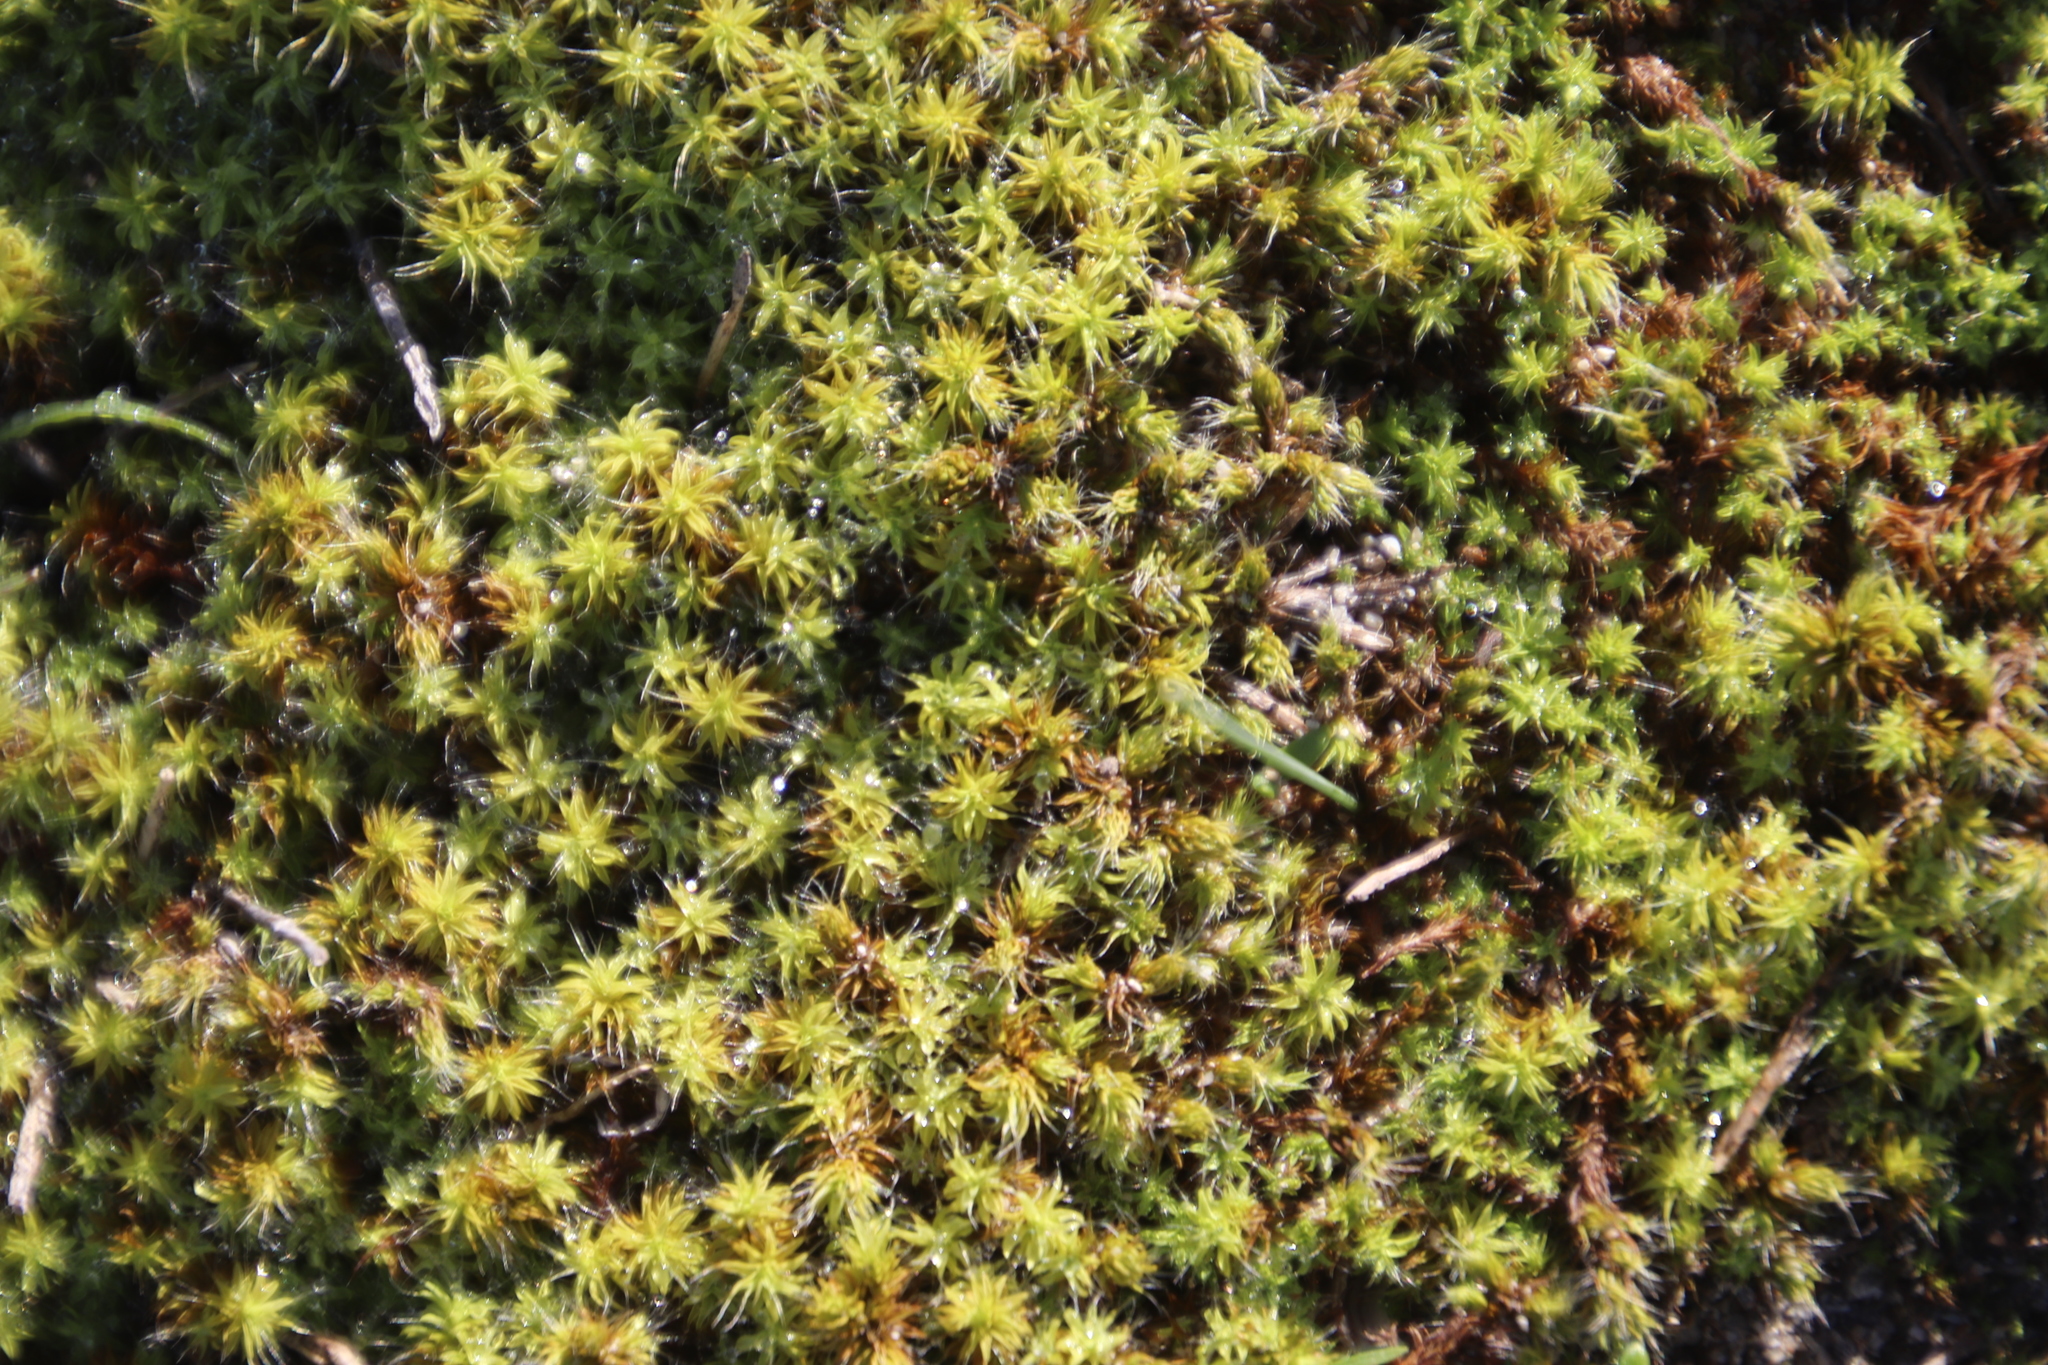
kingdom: Plantae
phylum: Bryophyta
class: Bryopsida
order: Pottiales
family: Pottiaceae
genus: Pseudocrossidium
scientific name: Pseudocrossidium crinitum
